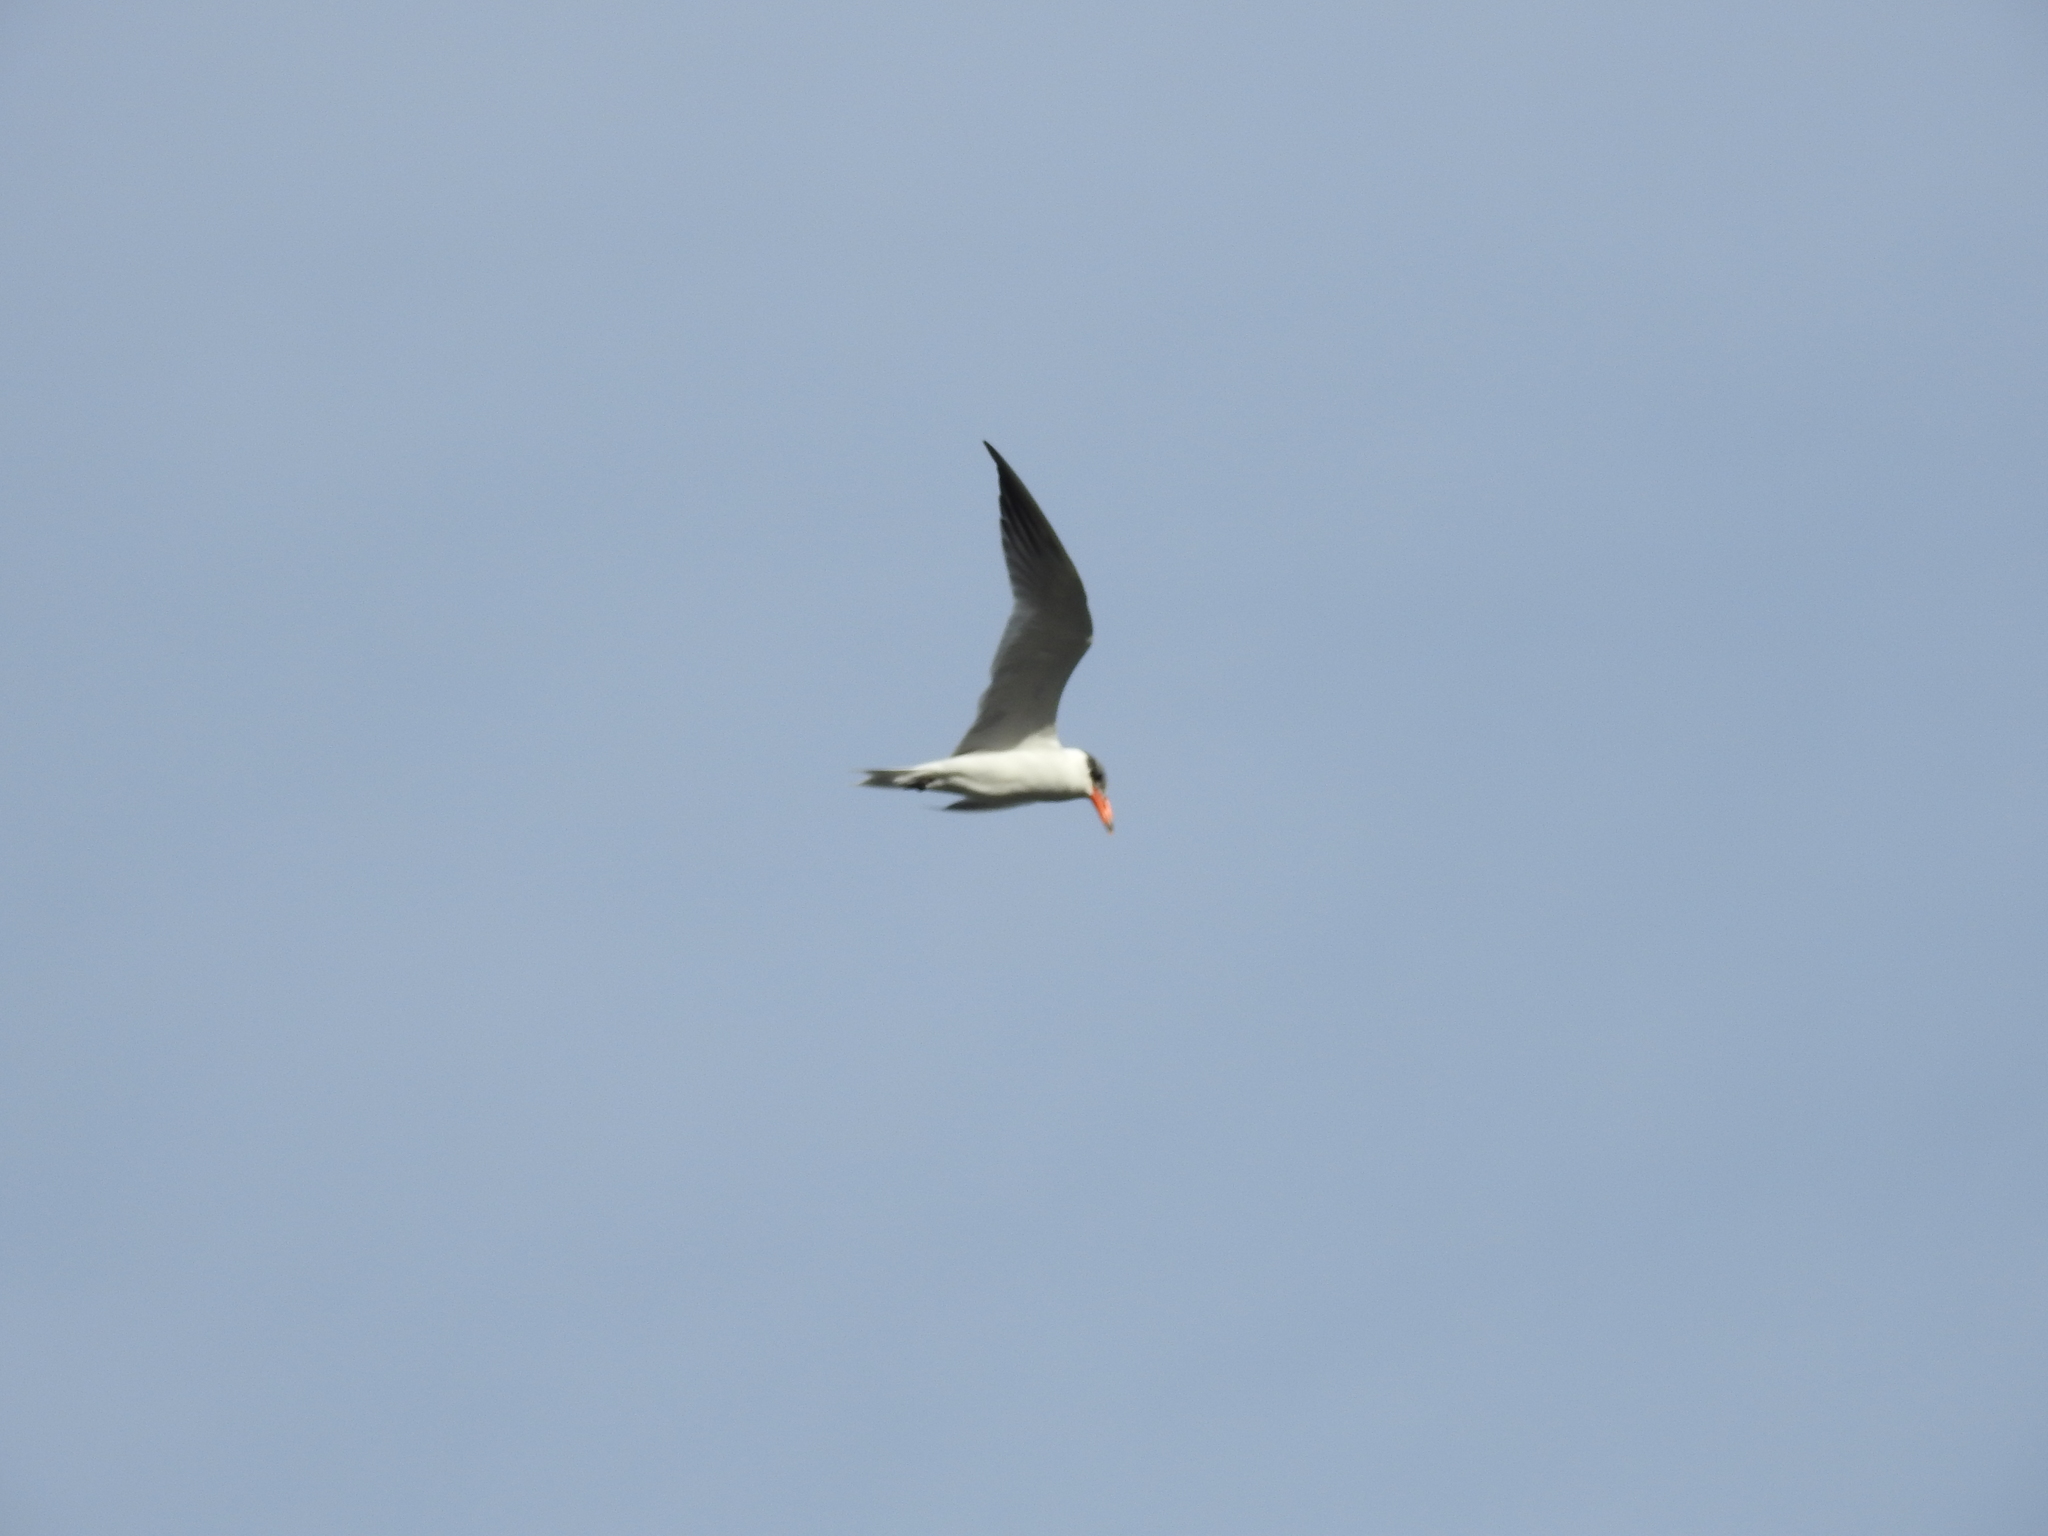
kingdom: Animalia
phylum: Chordata
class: Aves
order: Charadriiformes
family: Laridae
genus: Hydroprogne
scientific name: Hydroprogne caspia
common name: Caspian tern
